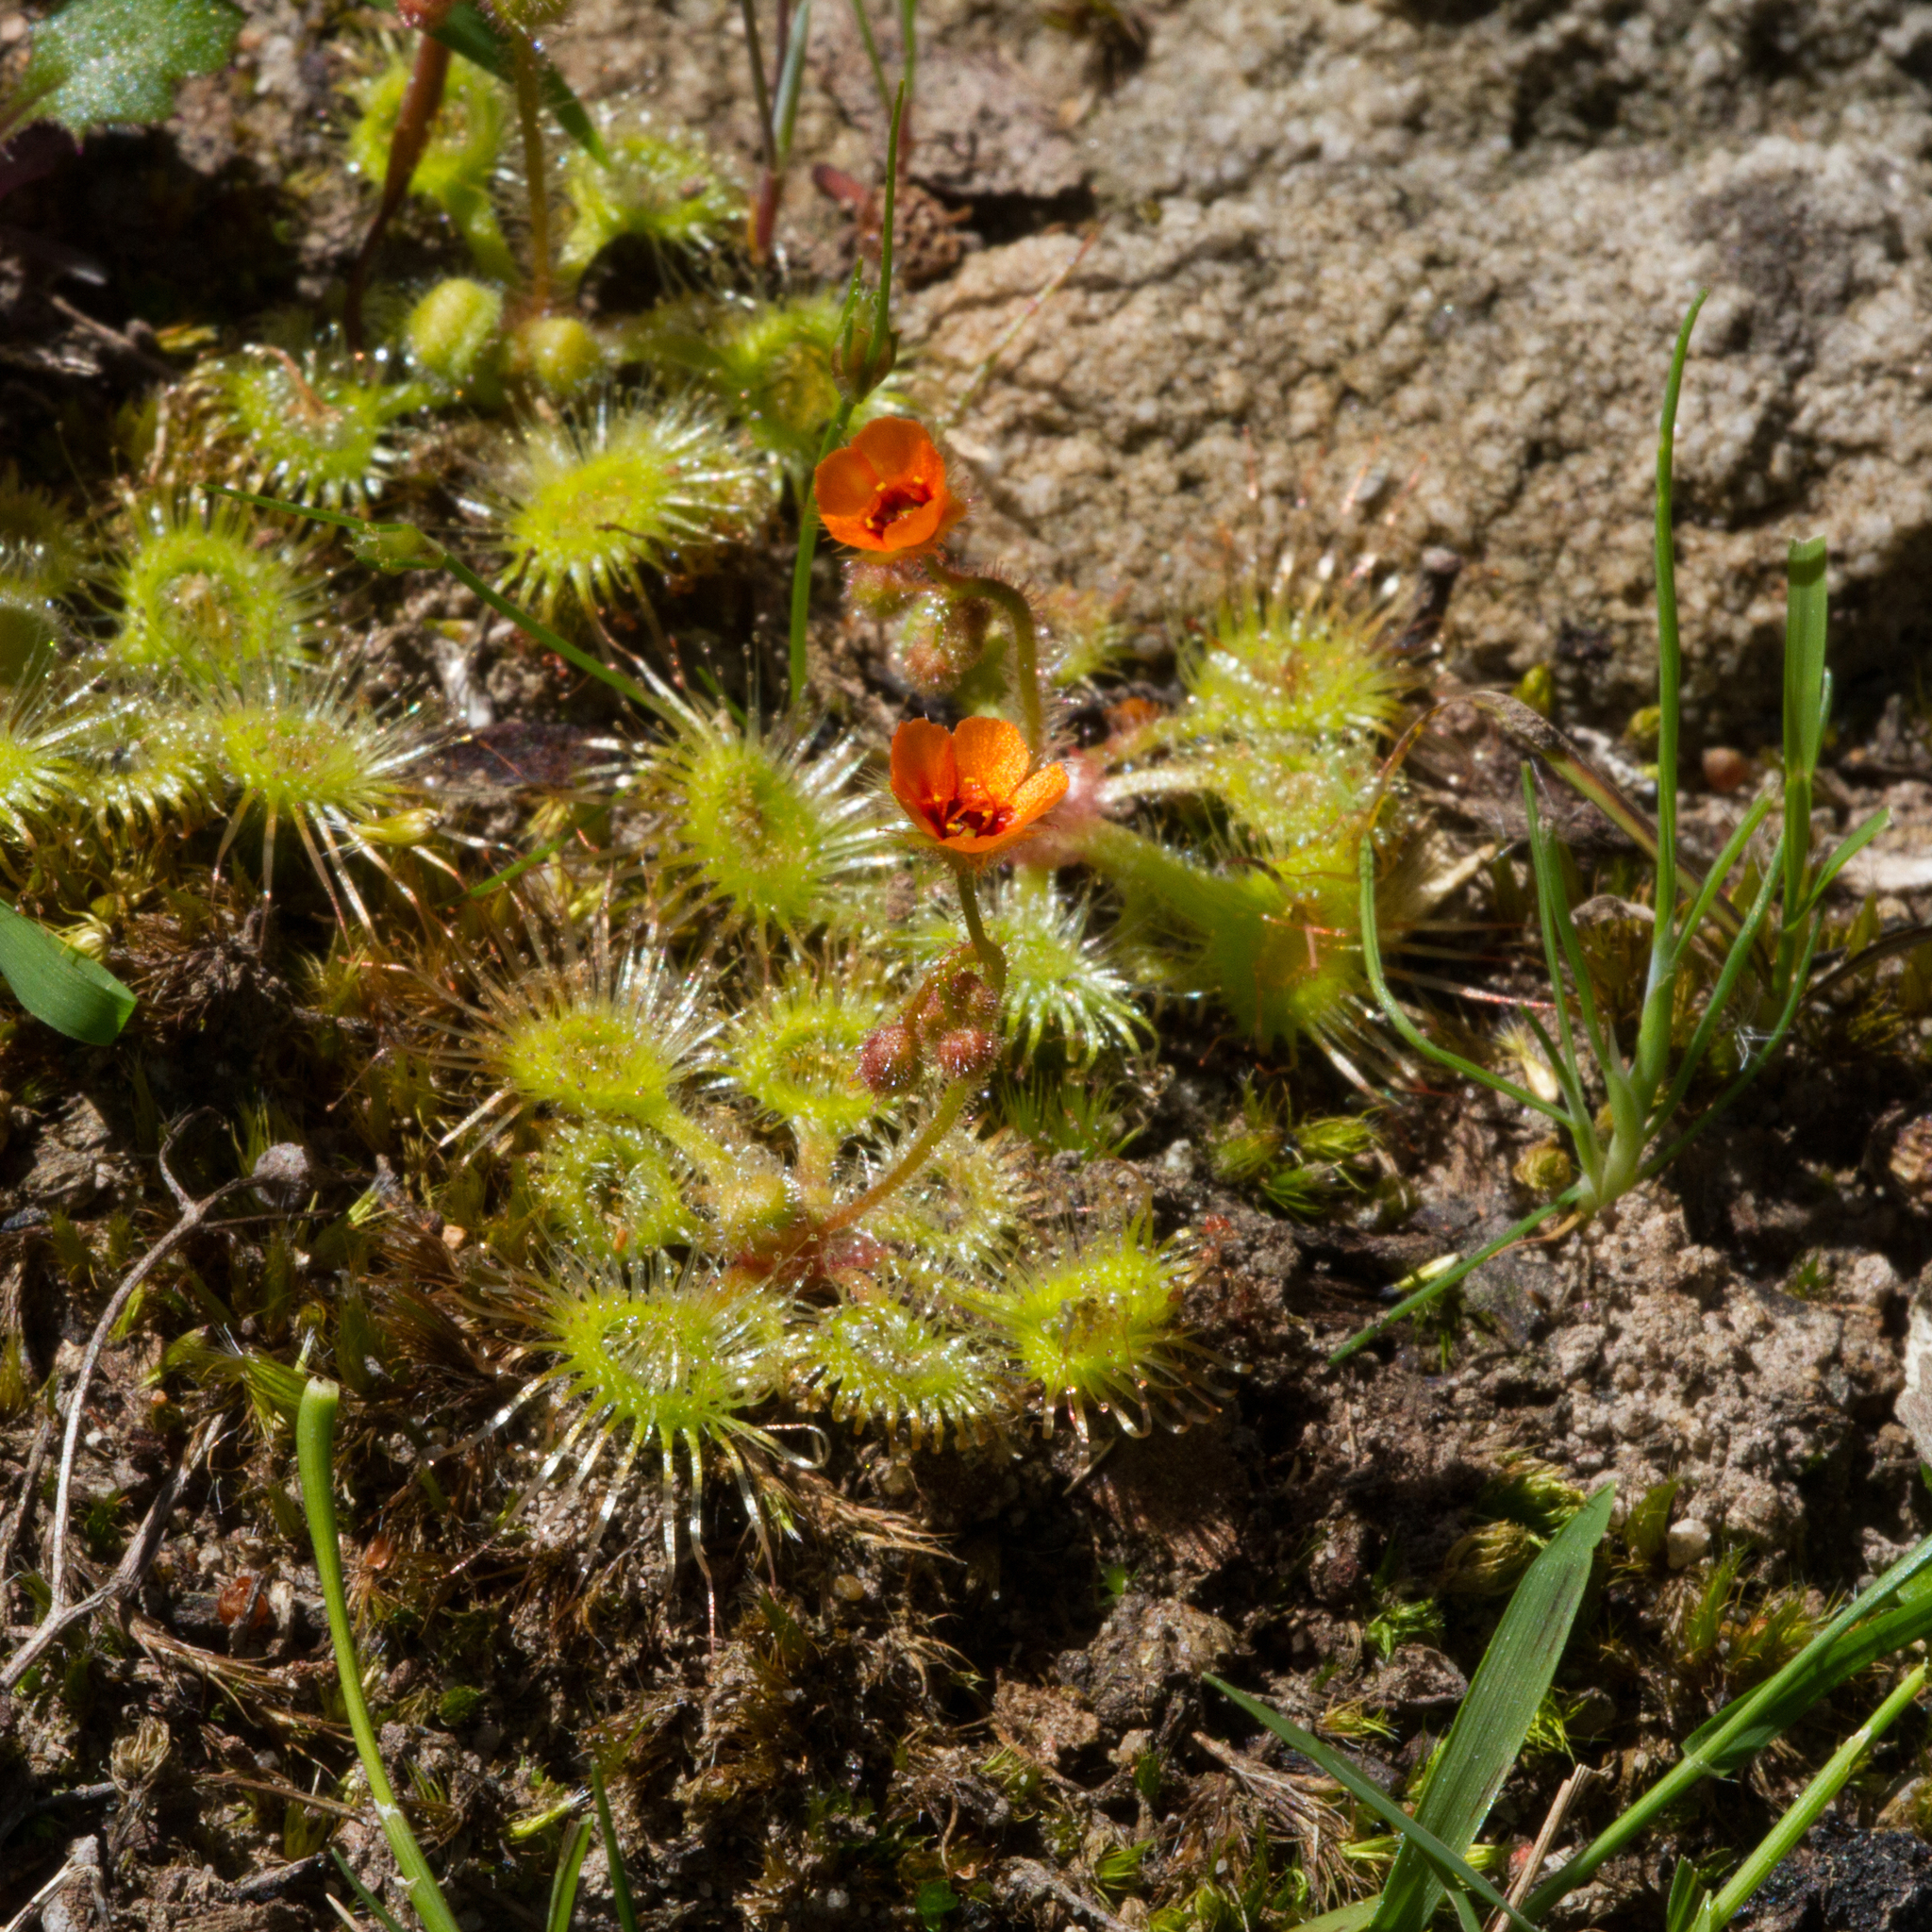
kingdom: Plantae
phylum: Tracheophyta
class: Magnoliopsida
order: Caryophyllales
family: Droseraceae
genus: Drosera
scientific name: Drosera glanduligera
